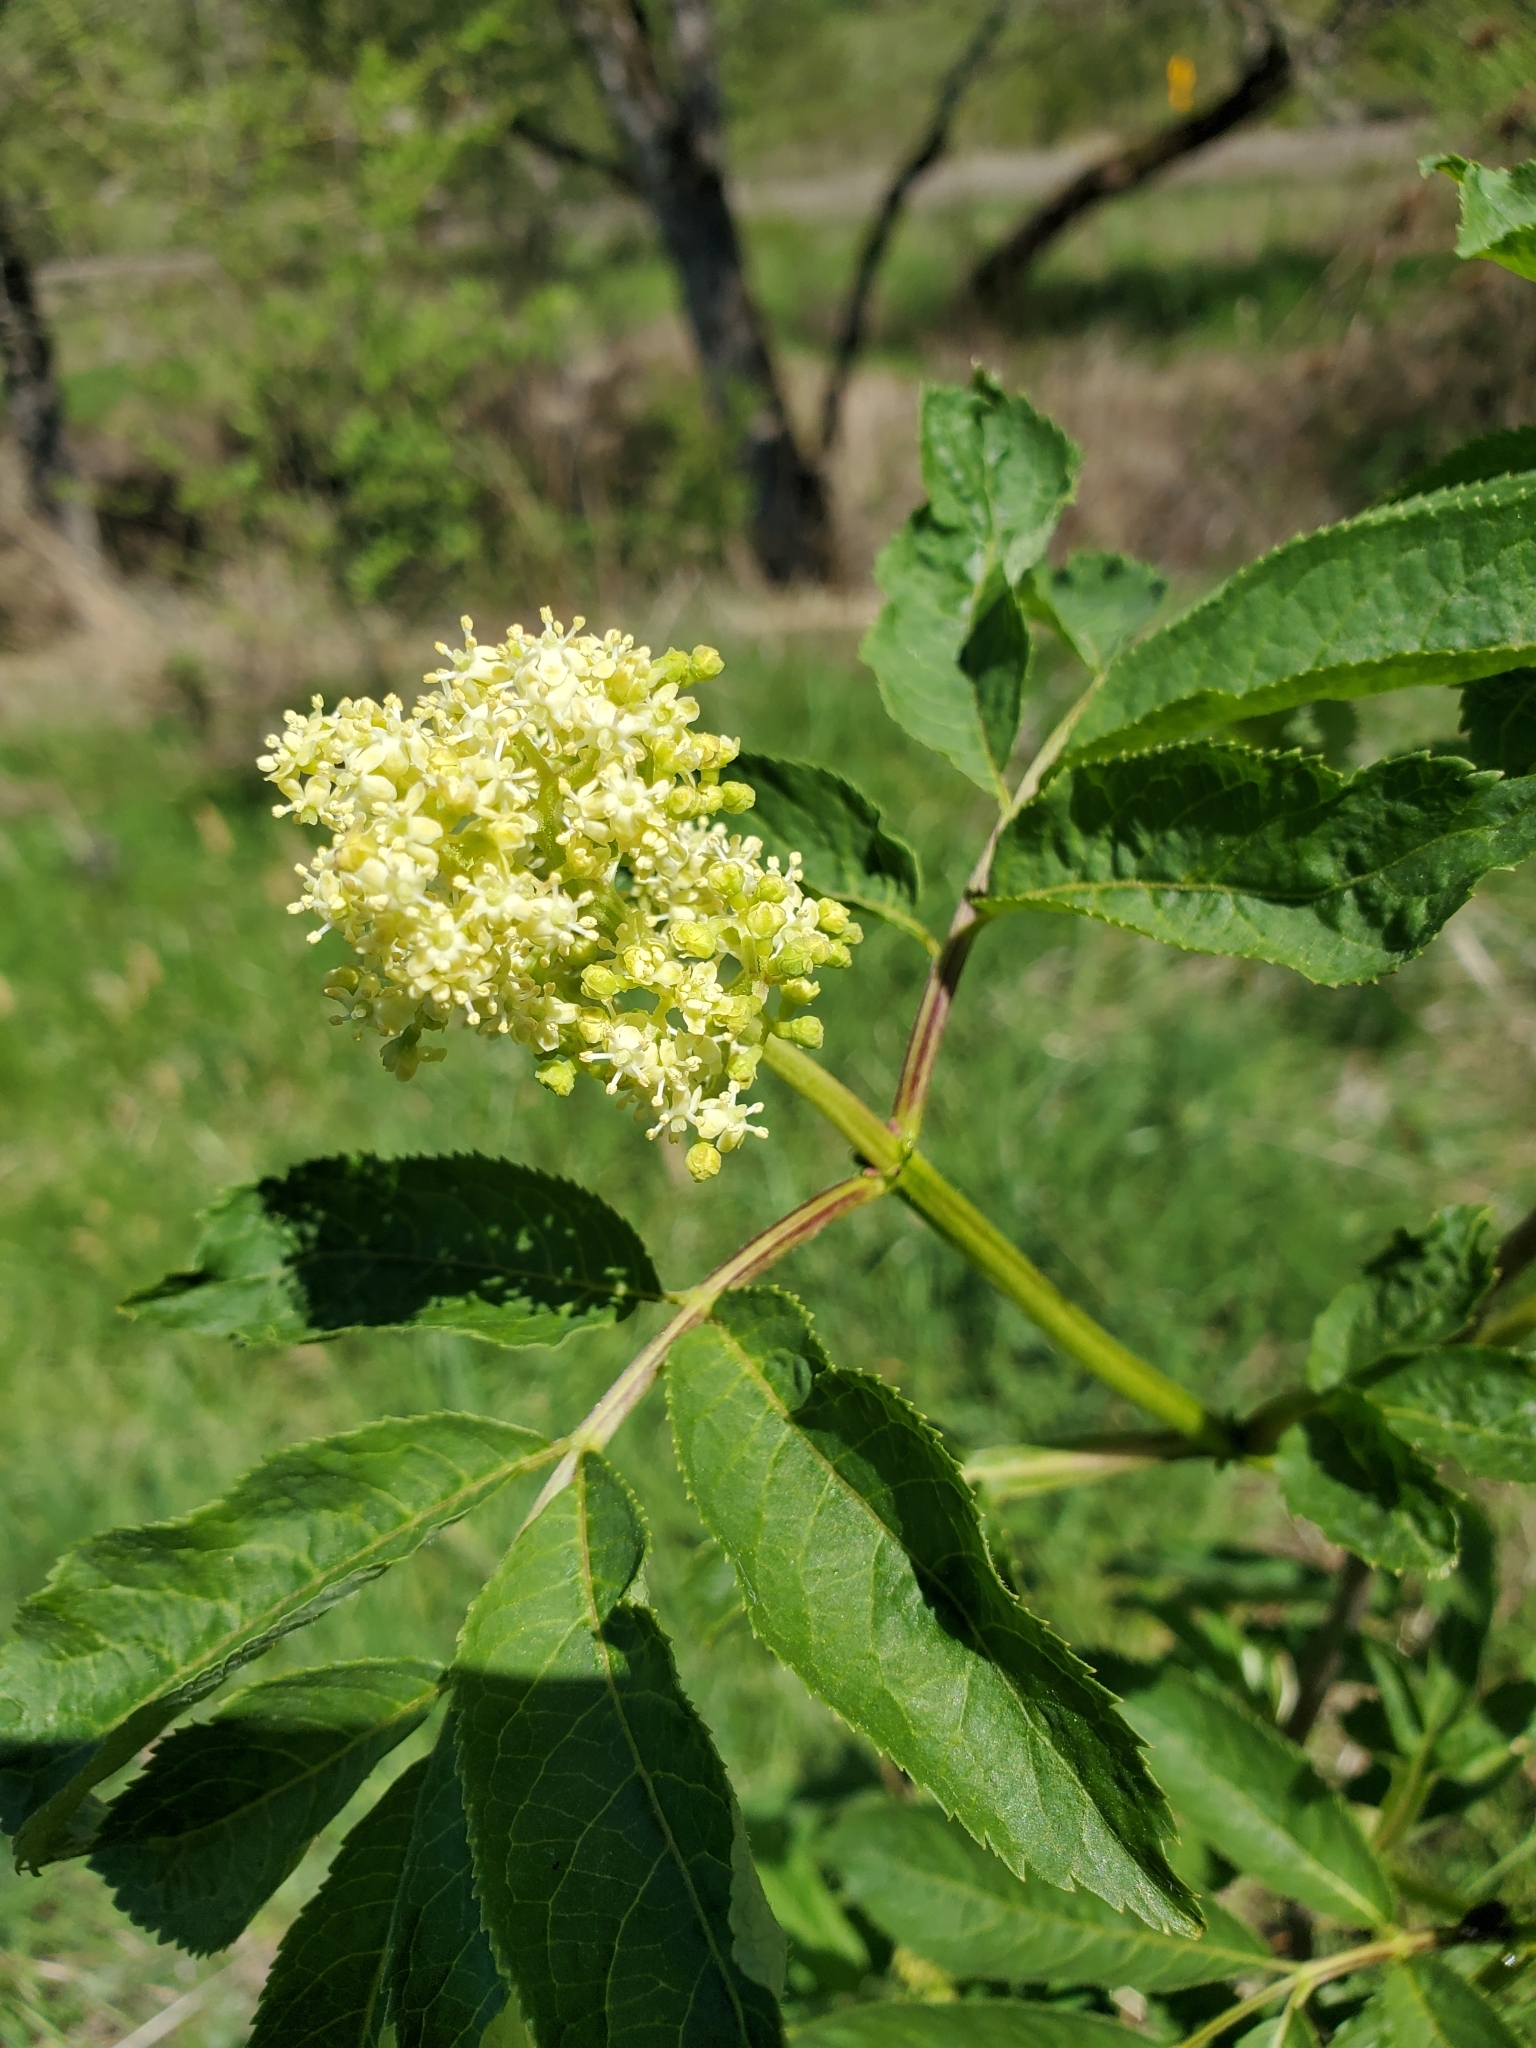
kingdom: Plantae
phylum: Tracheophyta
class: Magnoliopsida
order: Dipsacales
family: Viburnaceae
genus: Sambucus
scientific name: Sambucus racemosa
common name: Red-berried elder
